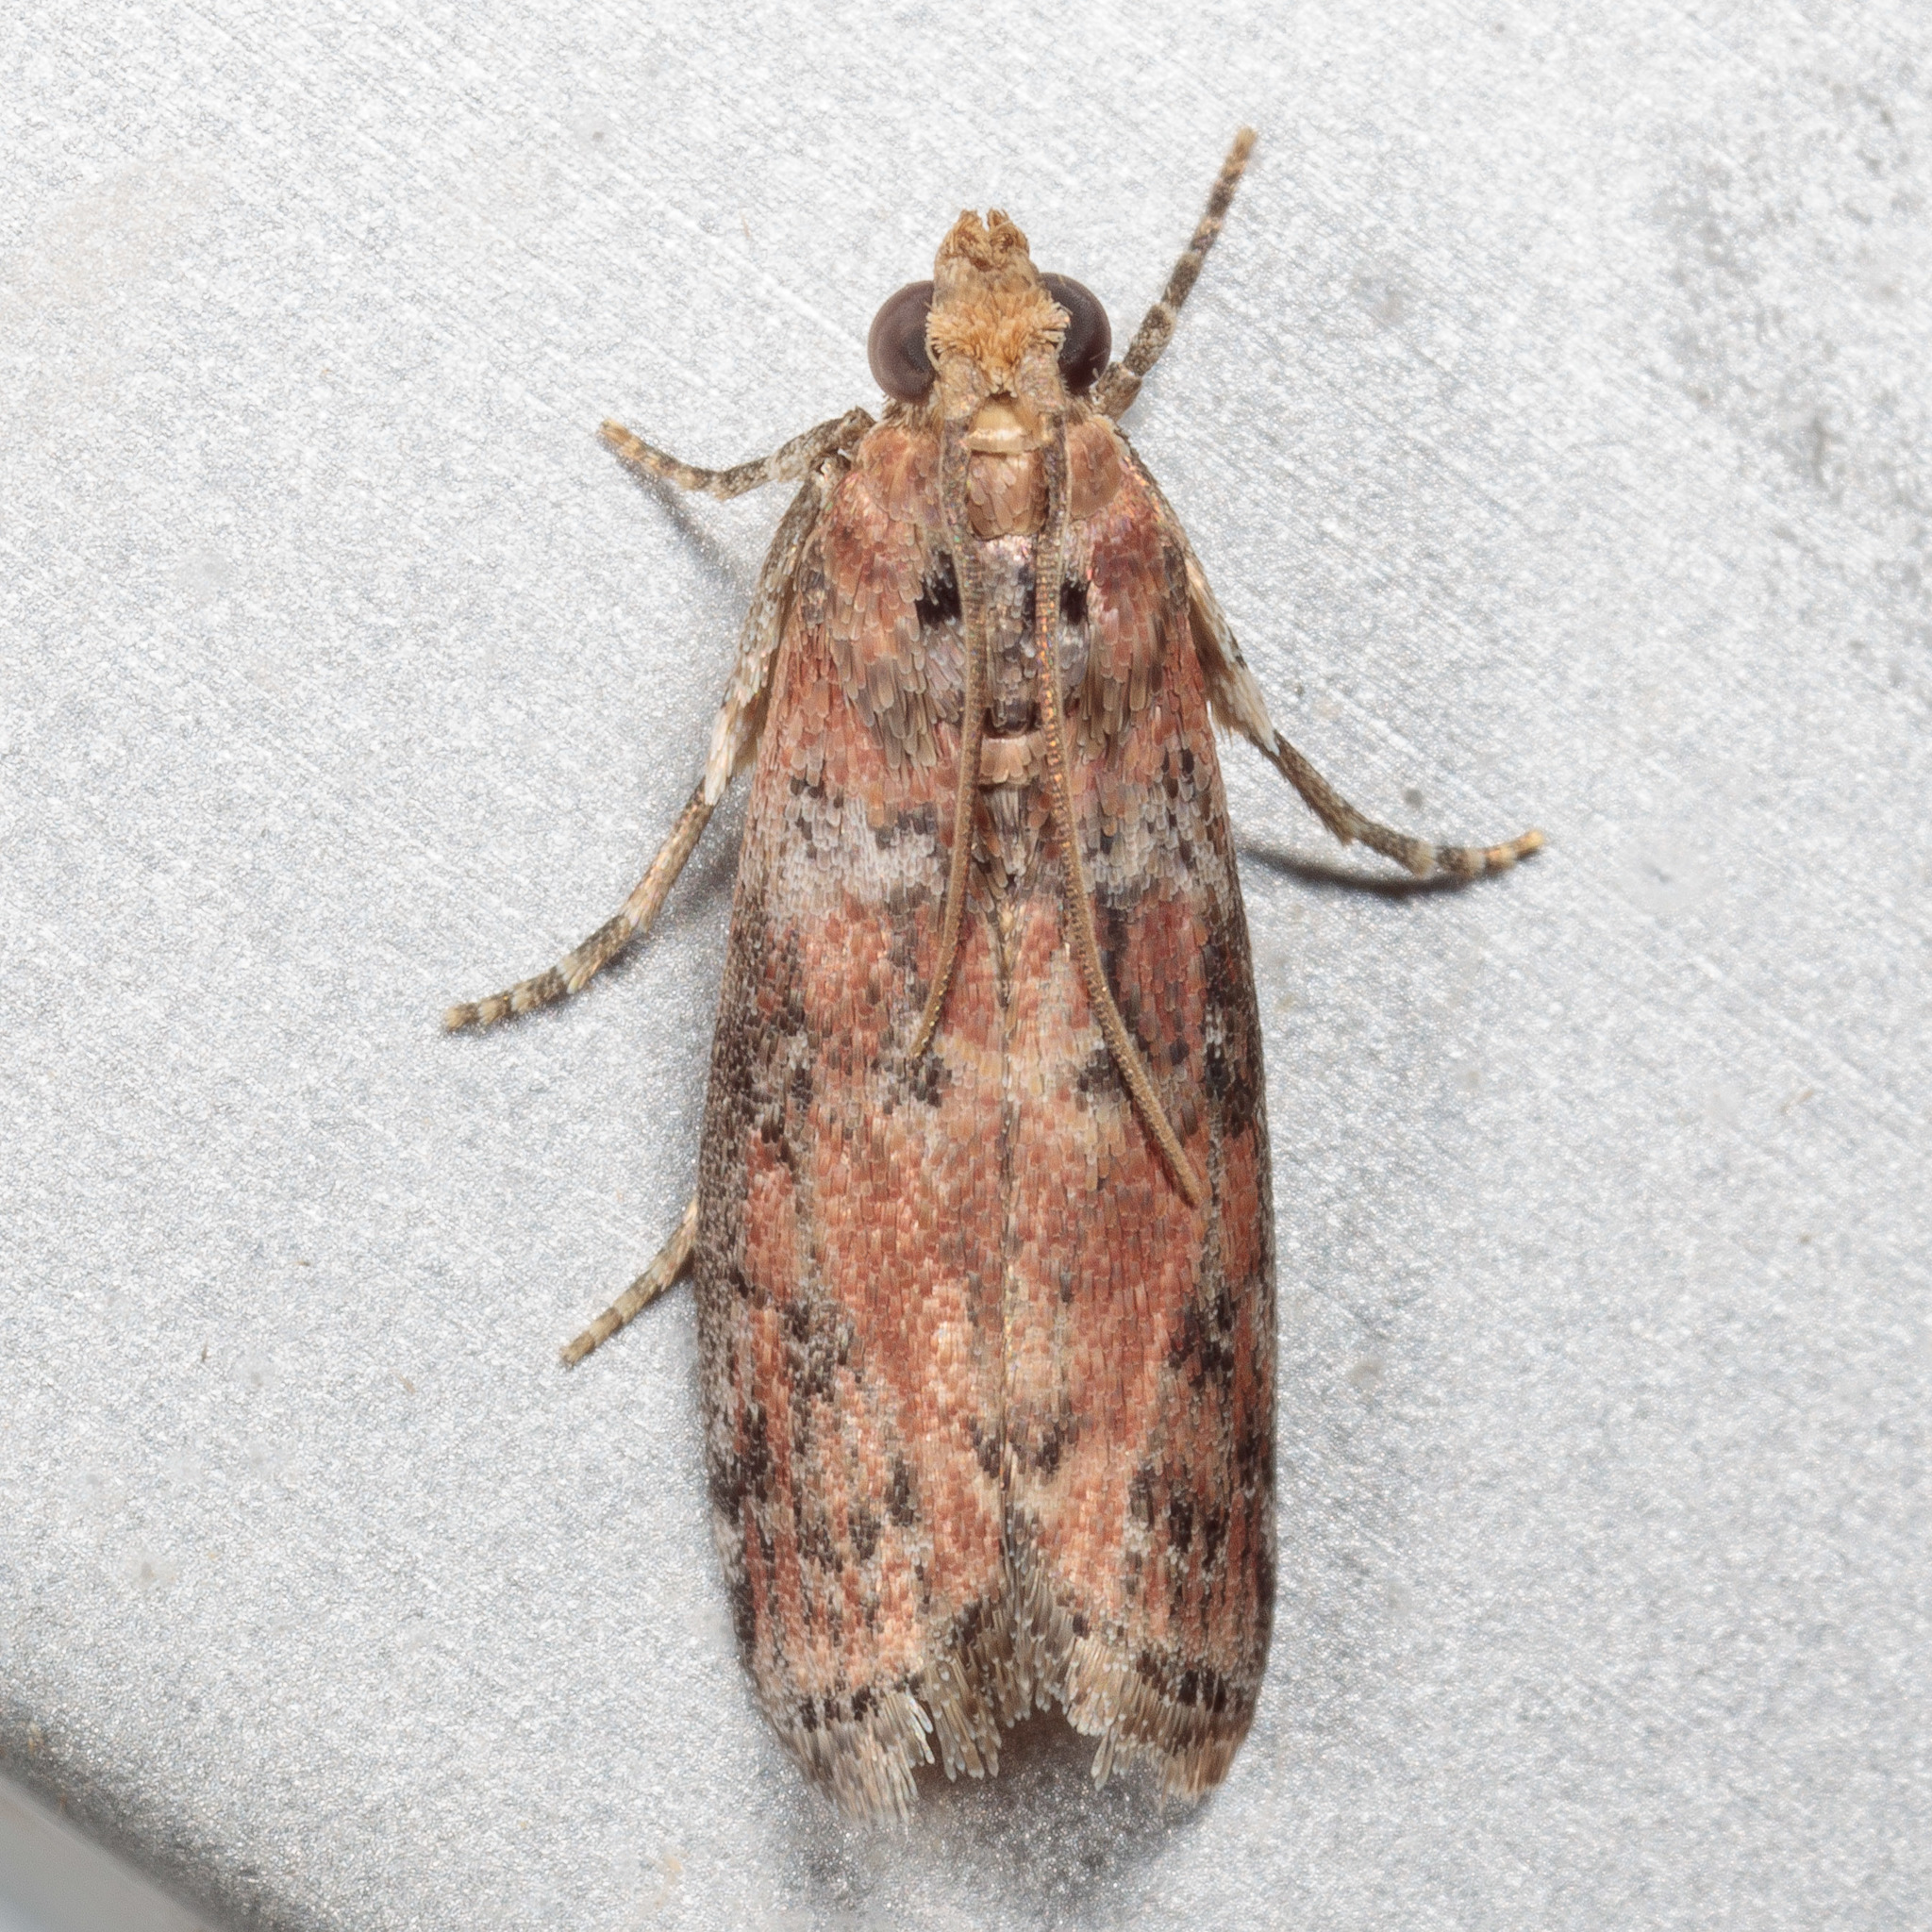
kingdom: Animalia
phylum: Arthropoda
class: Insecta
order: Lepidoptera
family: Pyralidae
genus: Sciota
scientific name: Sciota
